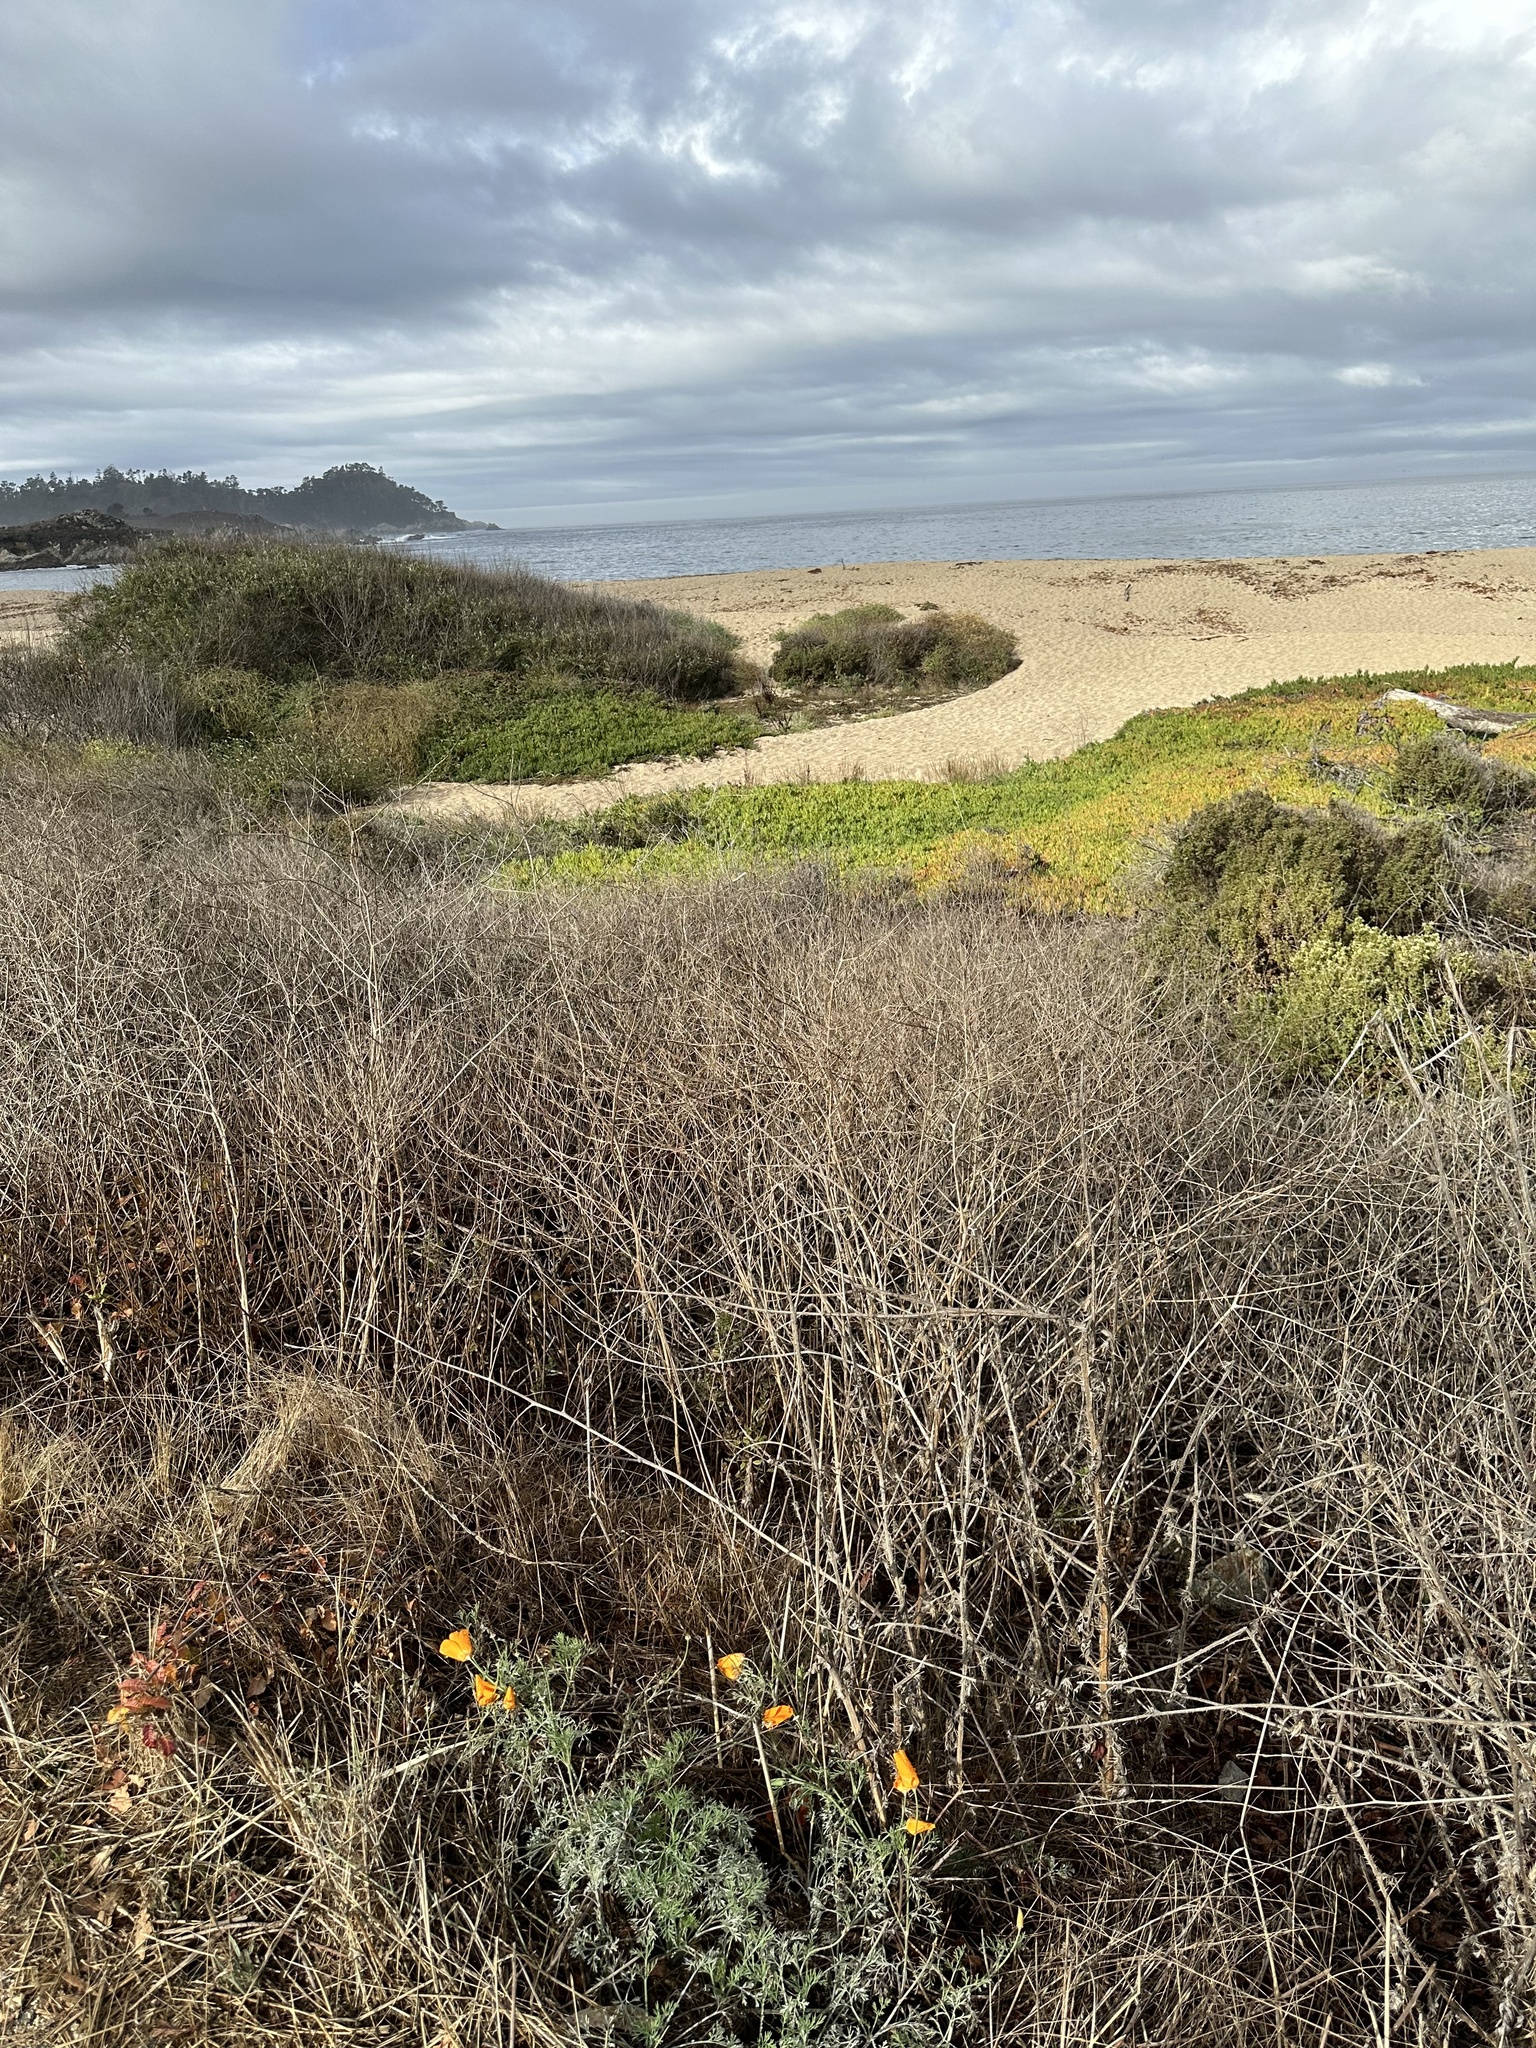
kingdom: Plantae
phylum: Tracheophyta
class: Magnoliopsida
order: Ranunculales
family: Papaveraceae
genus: Eschscholzia
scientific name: Eschscholzia californica
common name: California poppy
